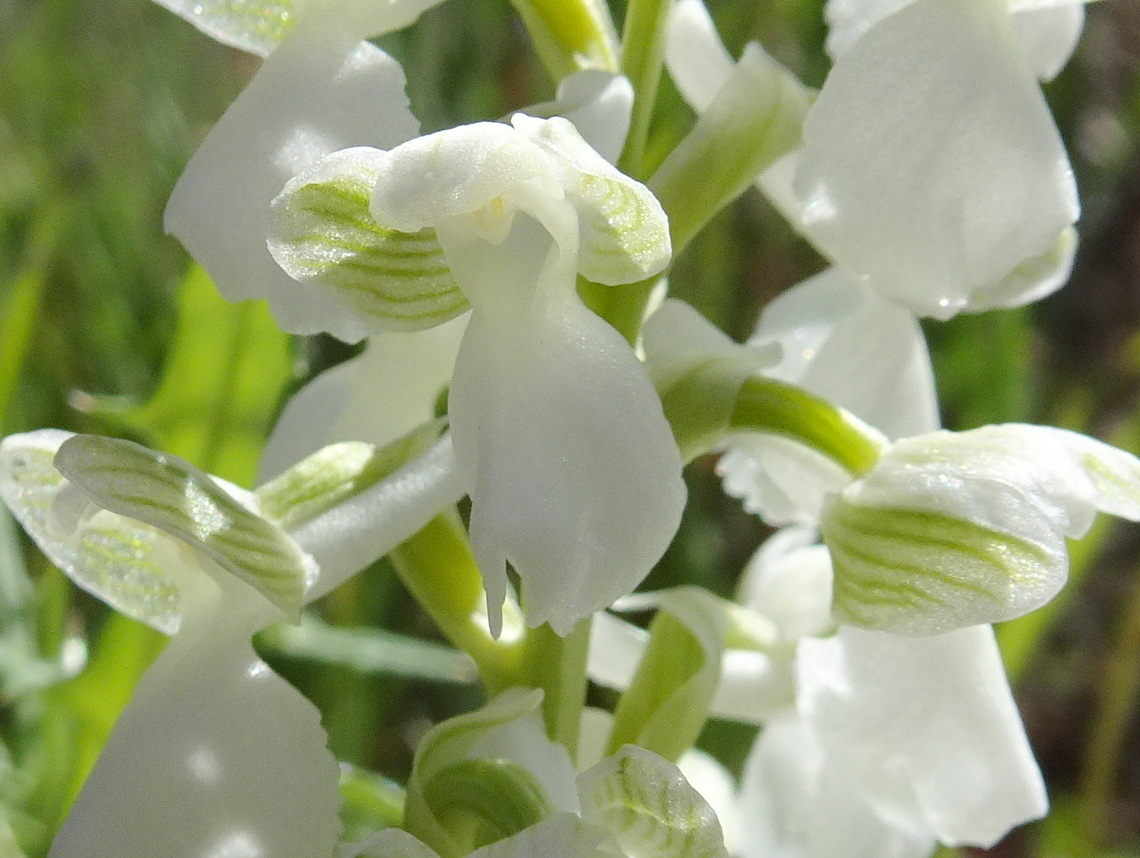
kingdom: Plantae
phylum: Tracheophyta
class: Liliopsida
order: Asparagales
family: Orchidaceae
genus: Anacamptis
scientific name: Anacamptis morio
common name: Green-winged orchid
